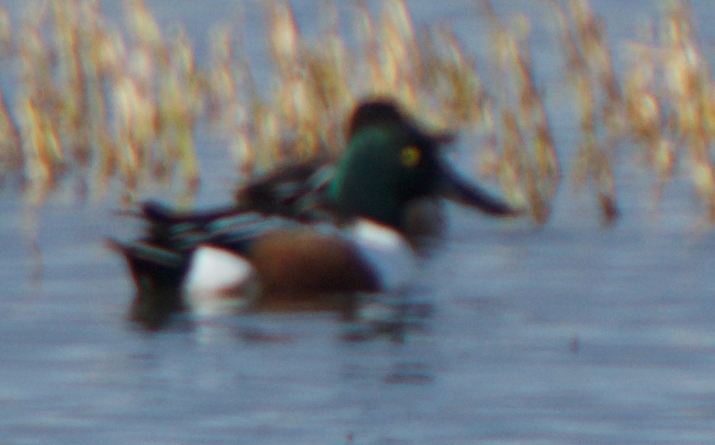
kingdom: Animalia
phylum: Chordata
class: Aves
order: Anseriformes
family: Anatidae
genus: Spatula
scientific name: Spatula clypeata
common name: Northern shoveler
